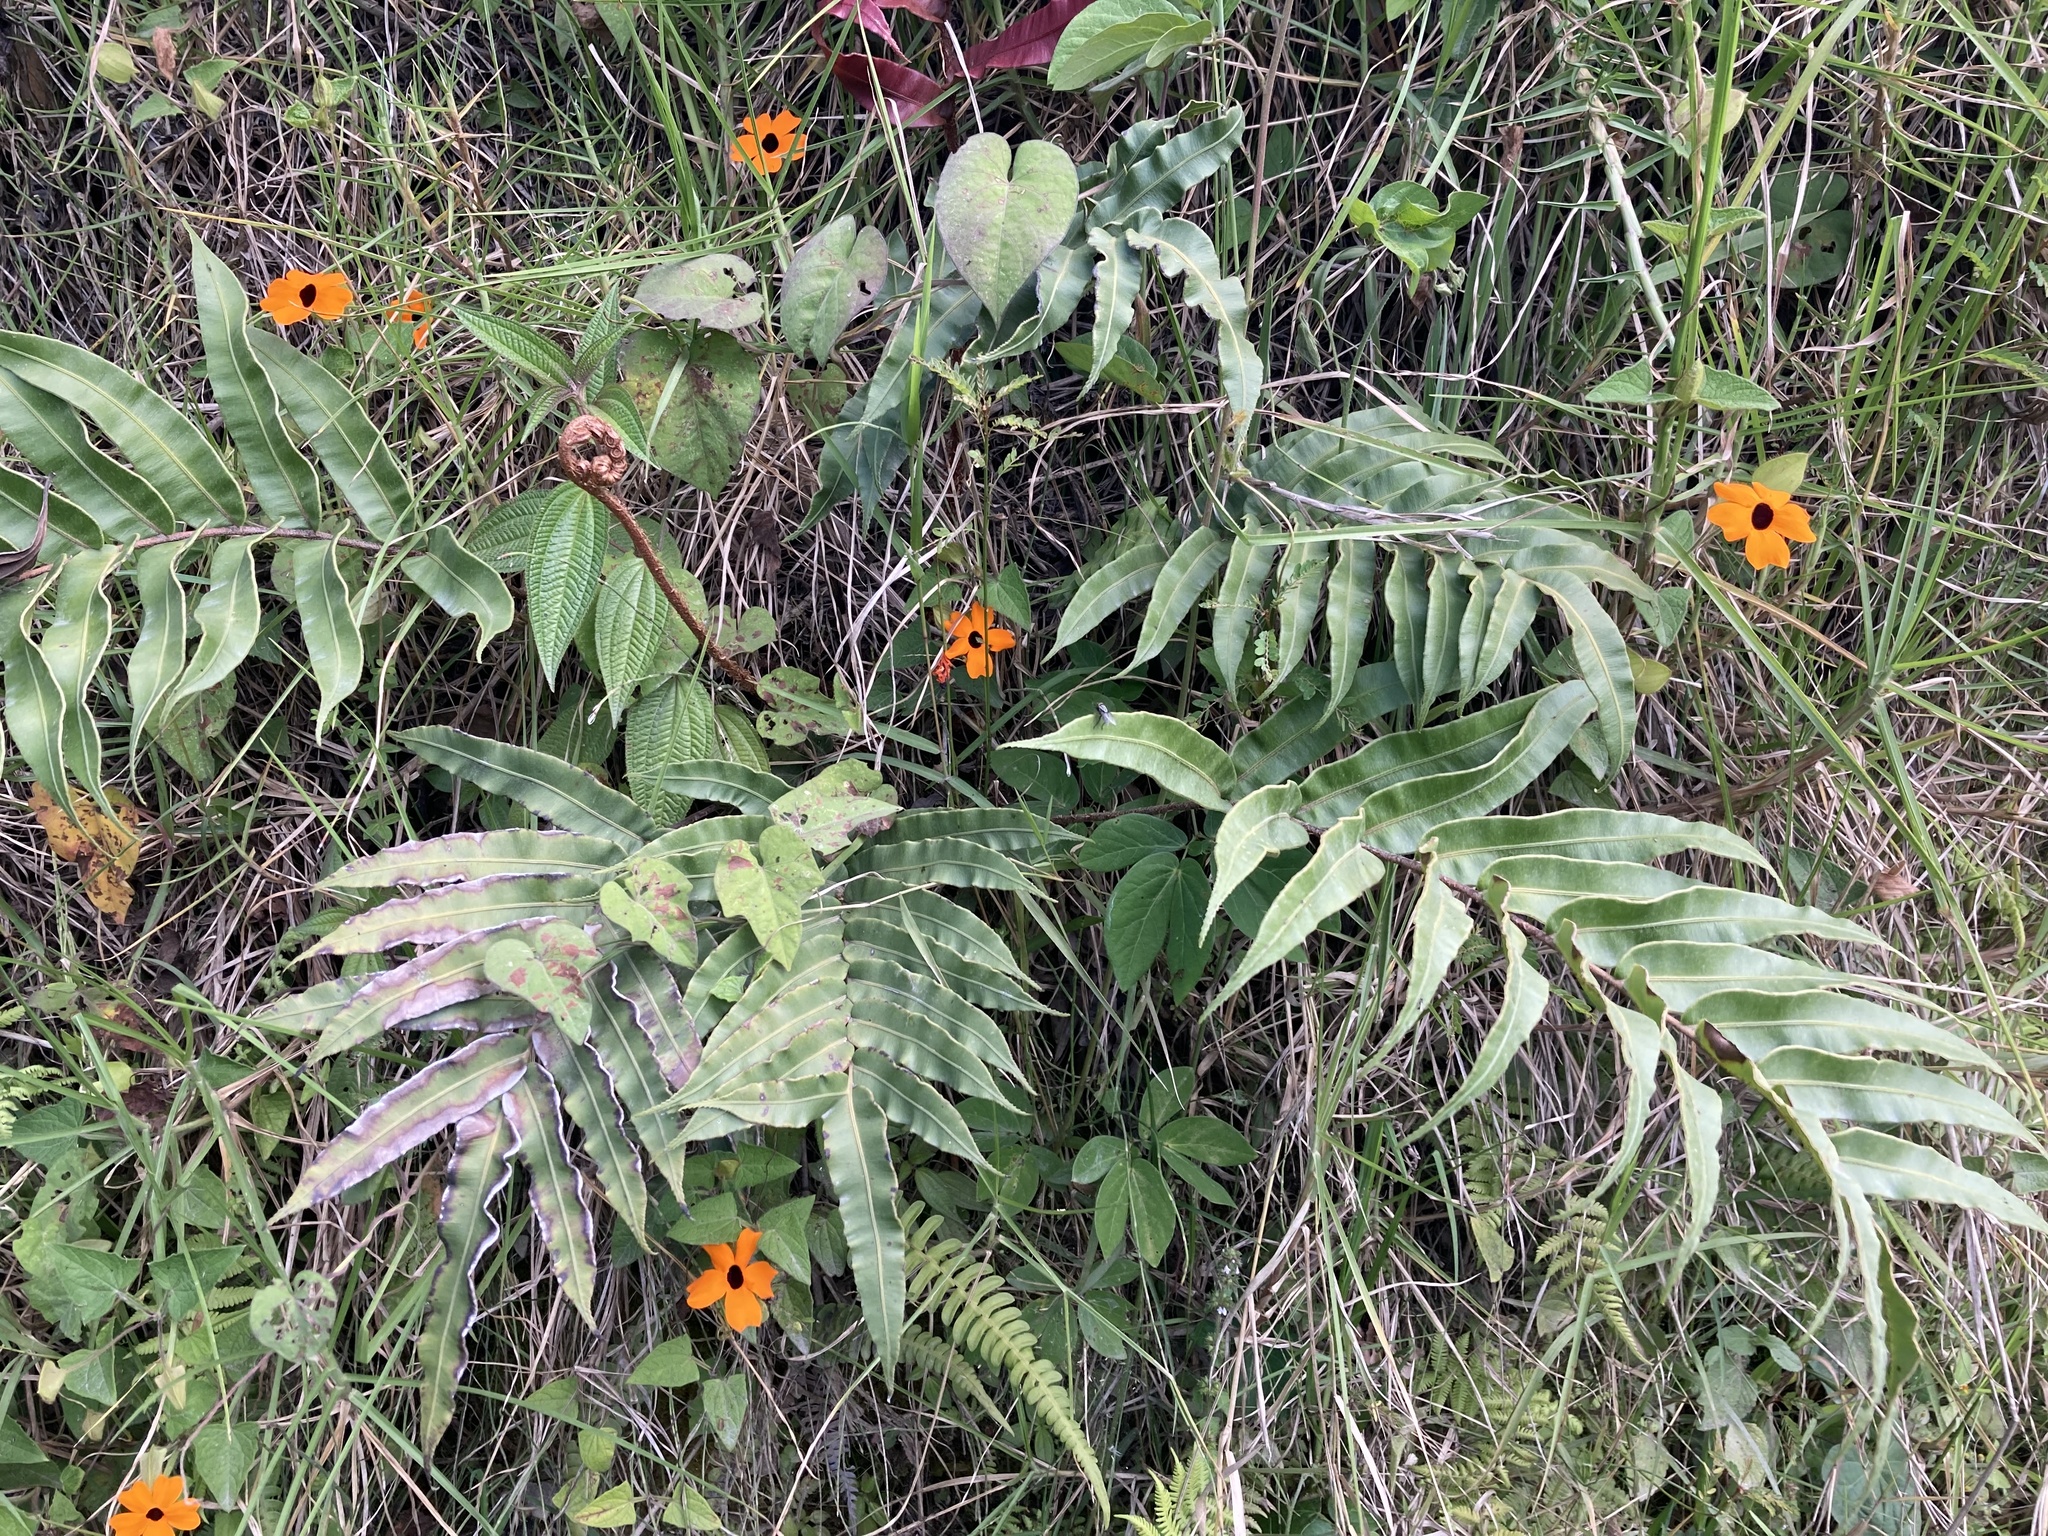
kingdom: Plantae
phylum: Tracheophyta
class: Magnoliopsida
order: Lamiales
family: Acanthaceae
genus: Thunbergia
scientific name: Thunbergia alata
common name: Blackeyed susan vine
